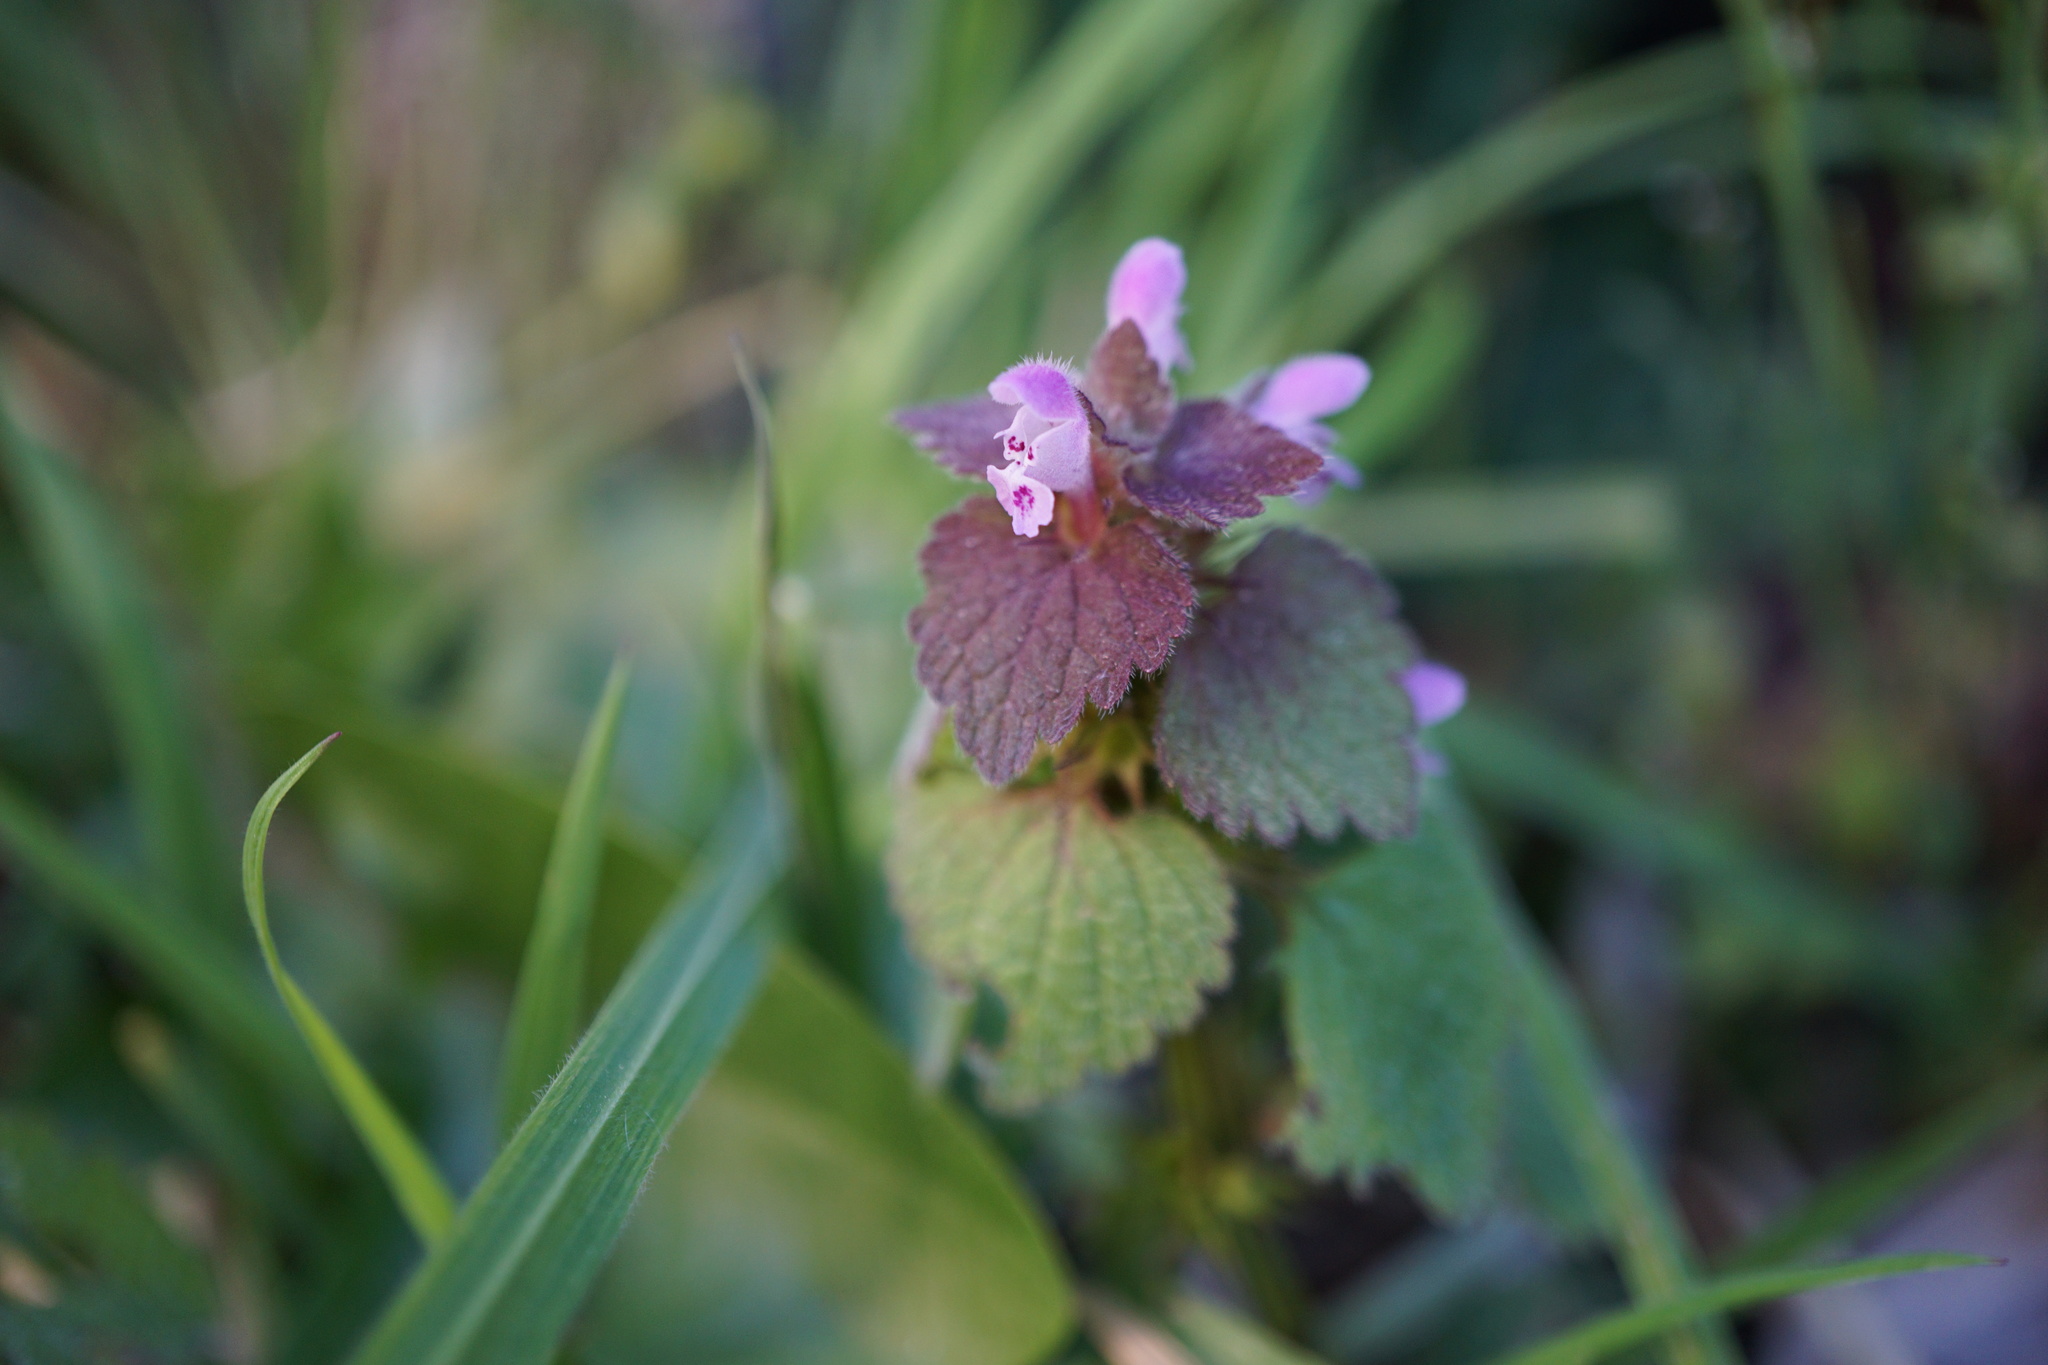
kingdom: Plantae
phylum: Tracheophyta
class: Magnoliopsida
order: Lamiales
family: Lamiaceae
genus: Lamium
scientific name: Lamium purpureum
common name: Red dead-nettle
